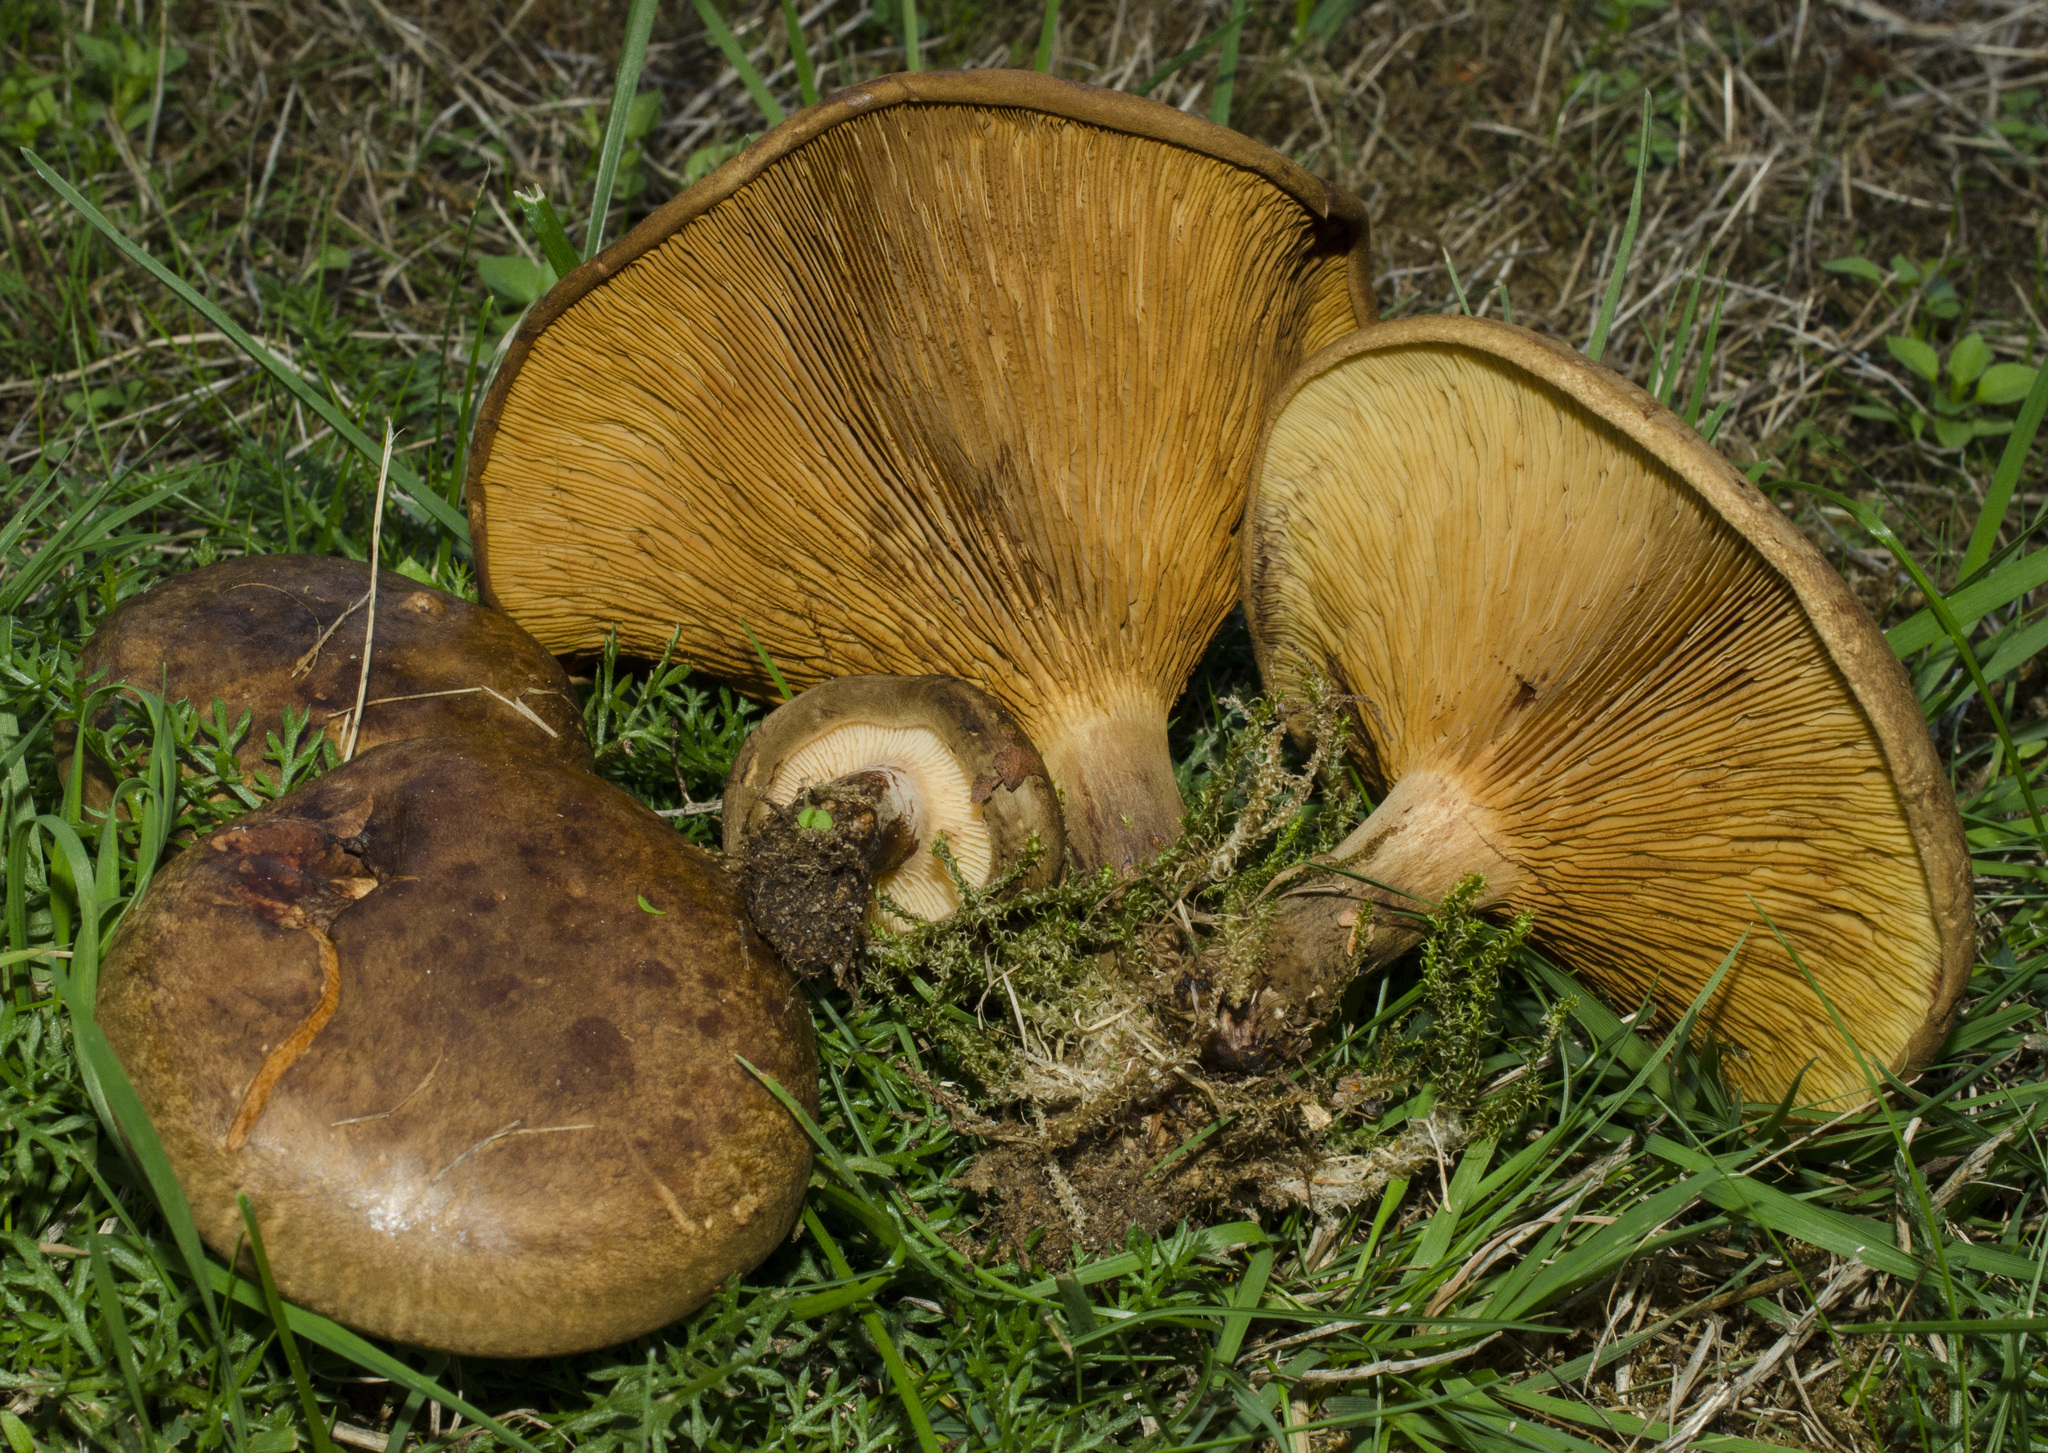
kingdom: Fungi
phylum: Basidiomycota
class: Agaricomycetes
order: Boletales
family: Paxillaceae
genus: Paxillus
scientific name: Paxillus involutus
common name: Brown roll rim
